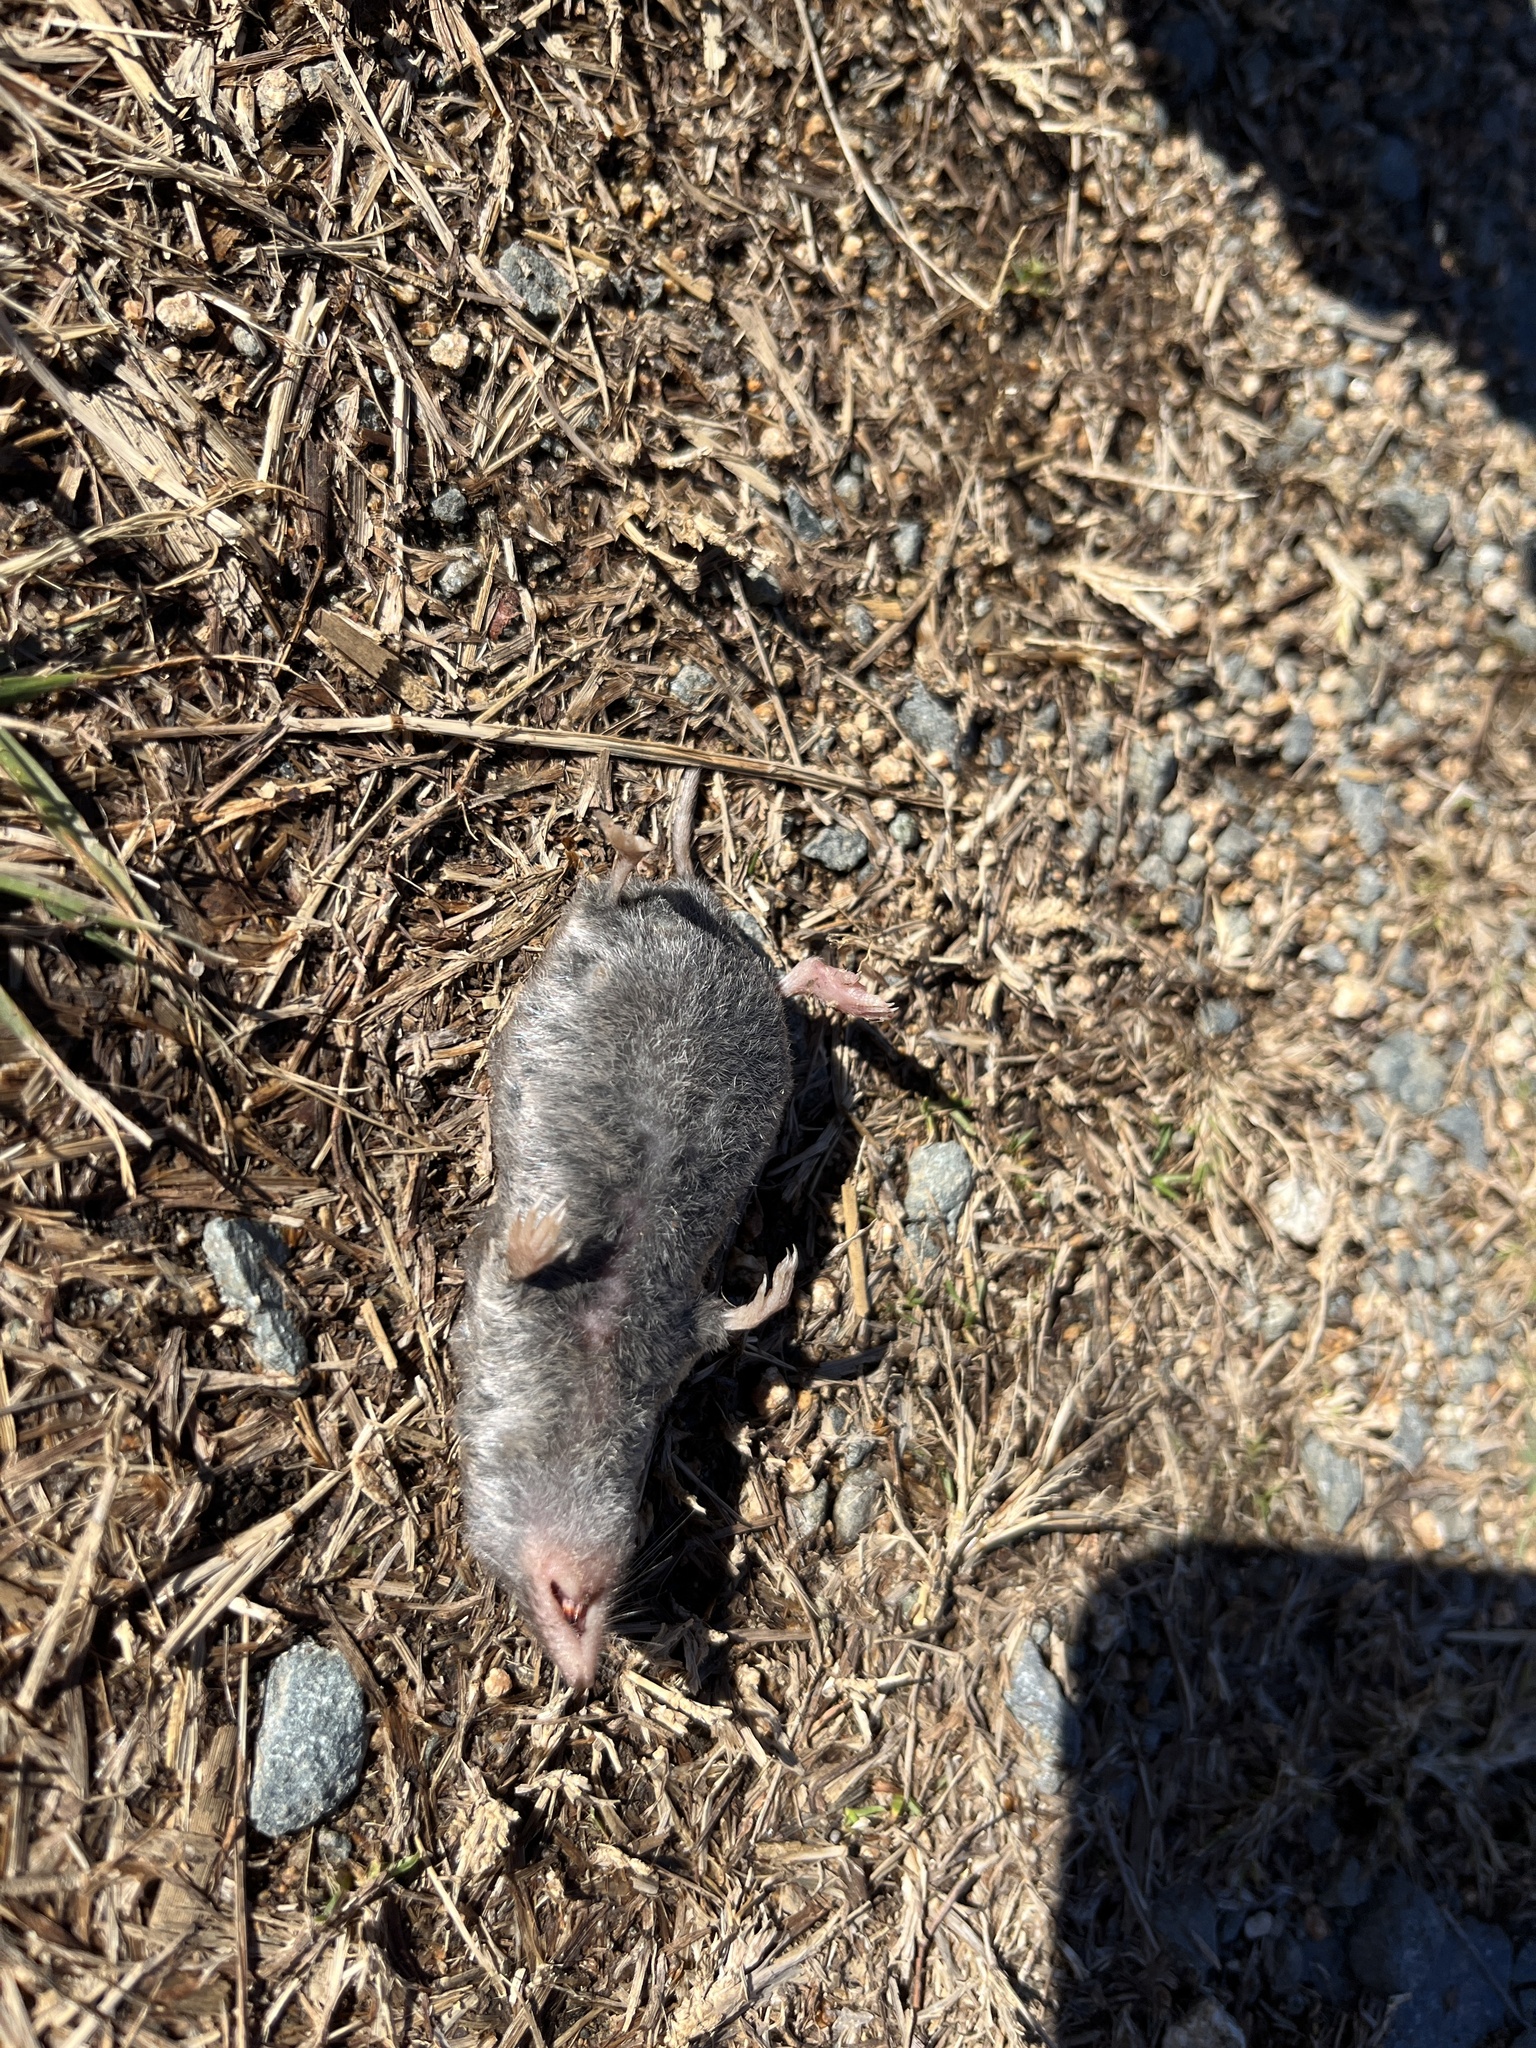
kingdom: Animalia
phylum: Chordata
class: Mammalia
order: Soricomorpha
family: Soricidae
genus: Blarina
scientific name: Blarina carolinensis
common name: Southern short-tailed shrew
